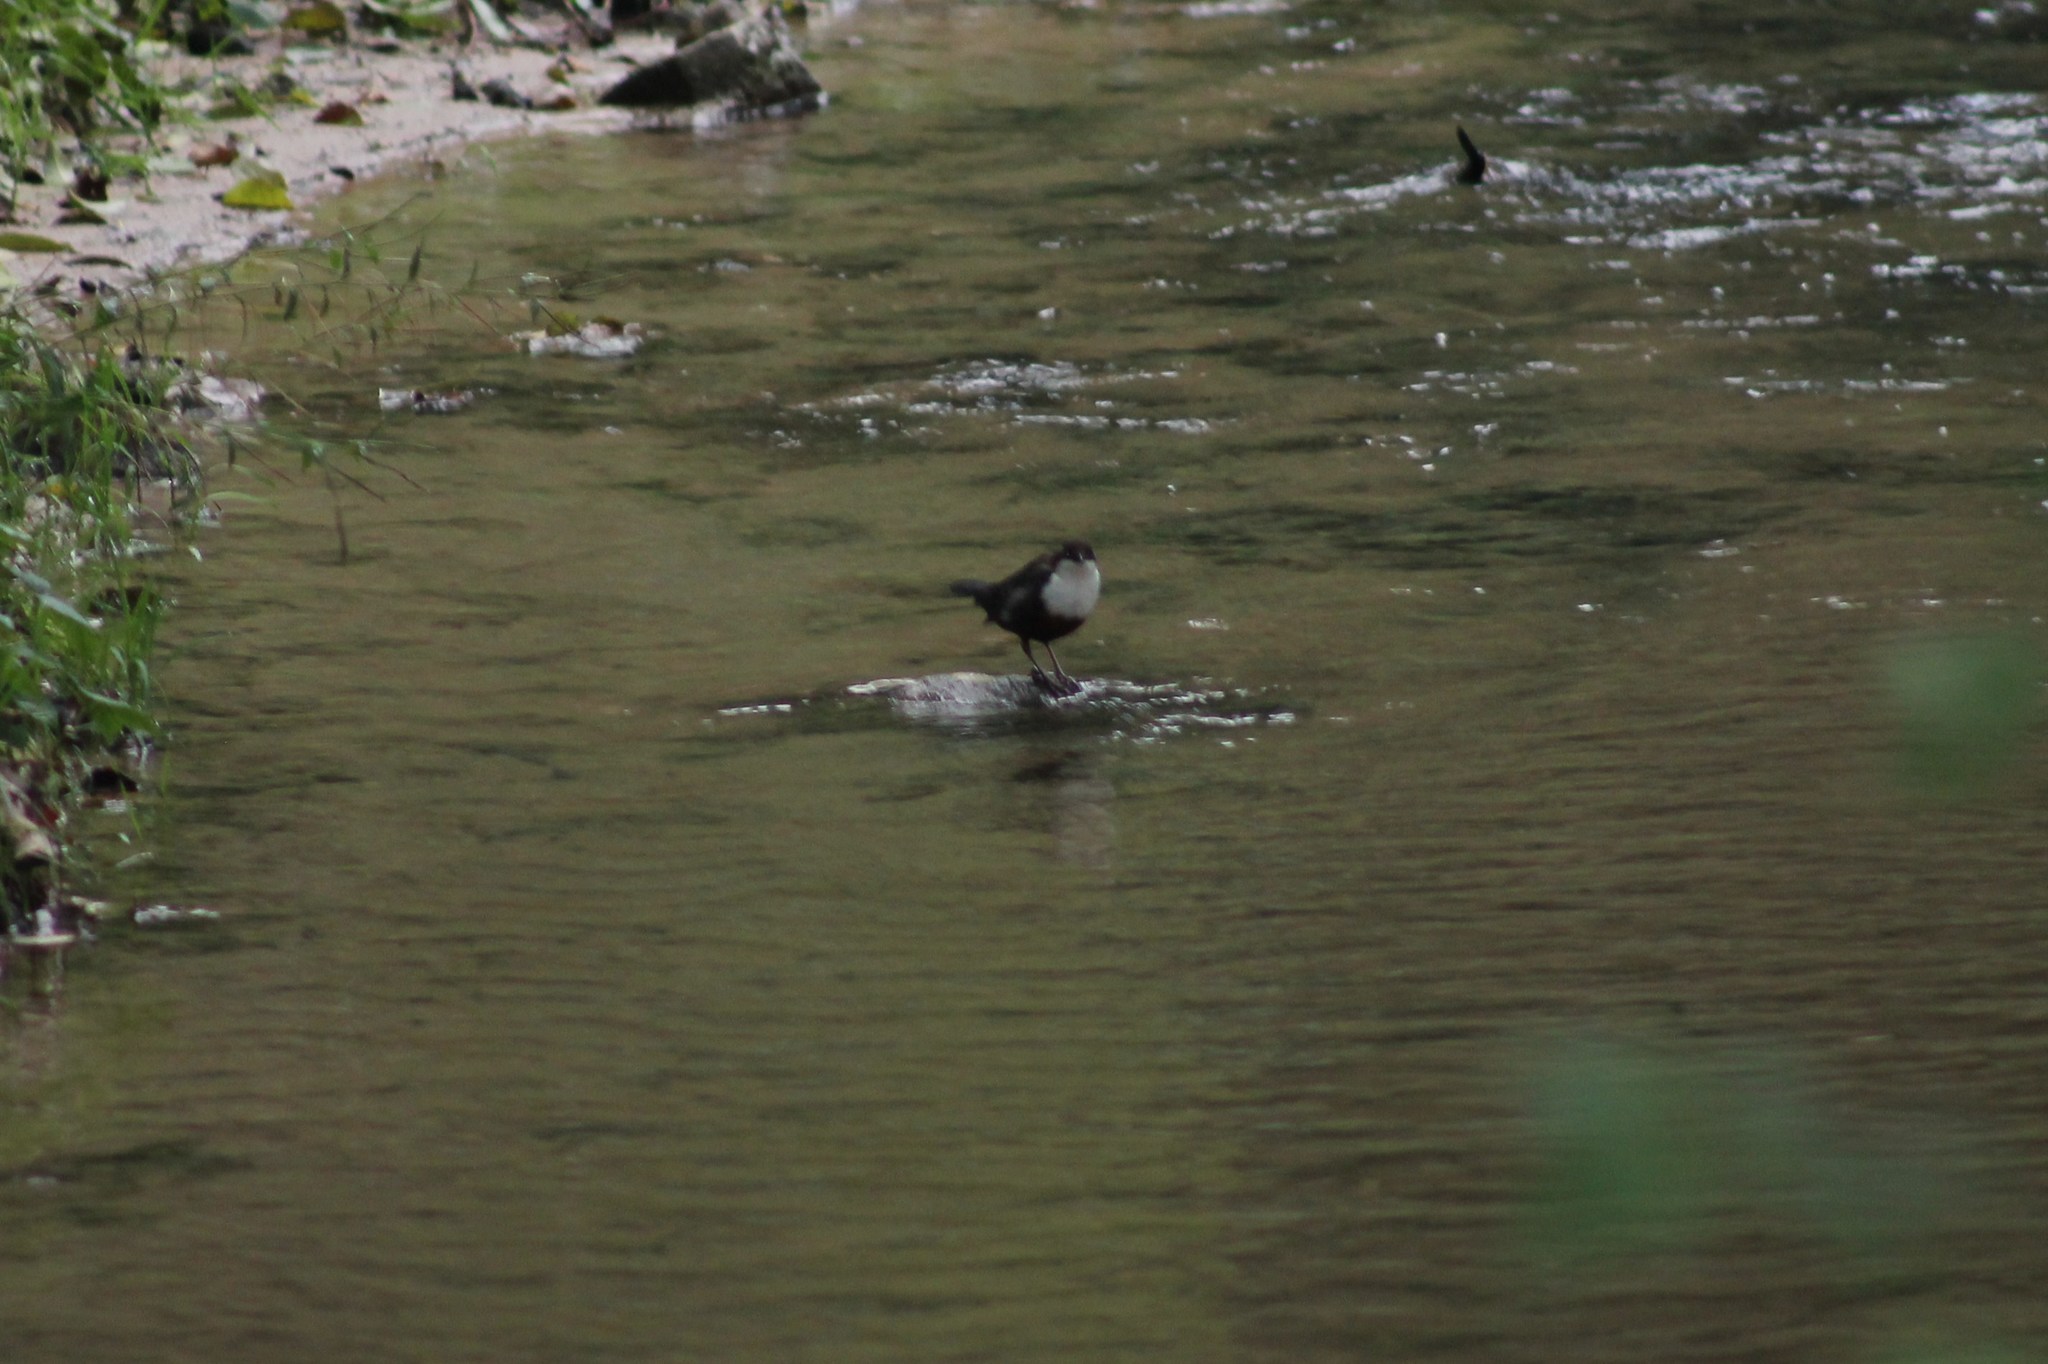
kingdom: Animalia
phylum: Chordata
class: Aves
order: Passeriformes
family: Cinclidae
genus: Cinclus
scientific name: Cinclus cinclus
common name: White-throated dipper
